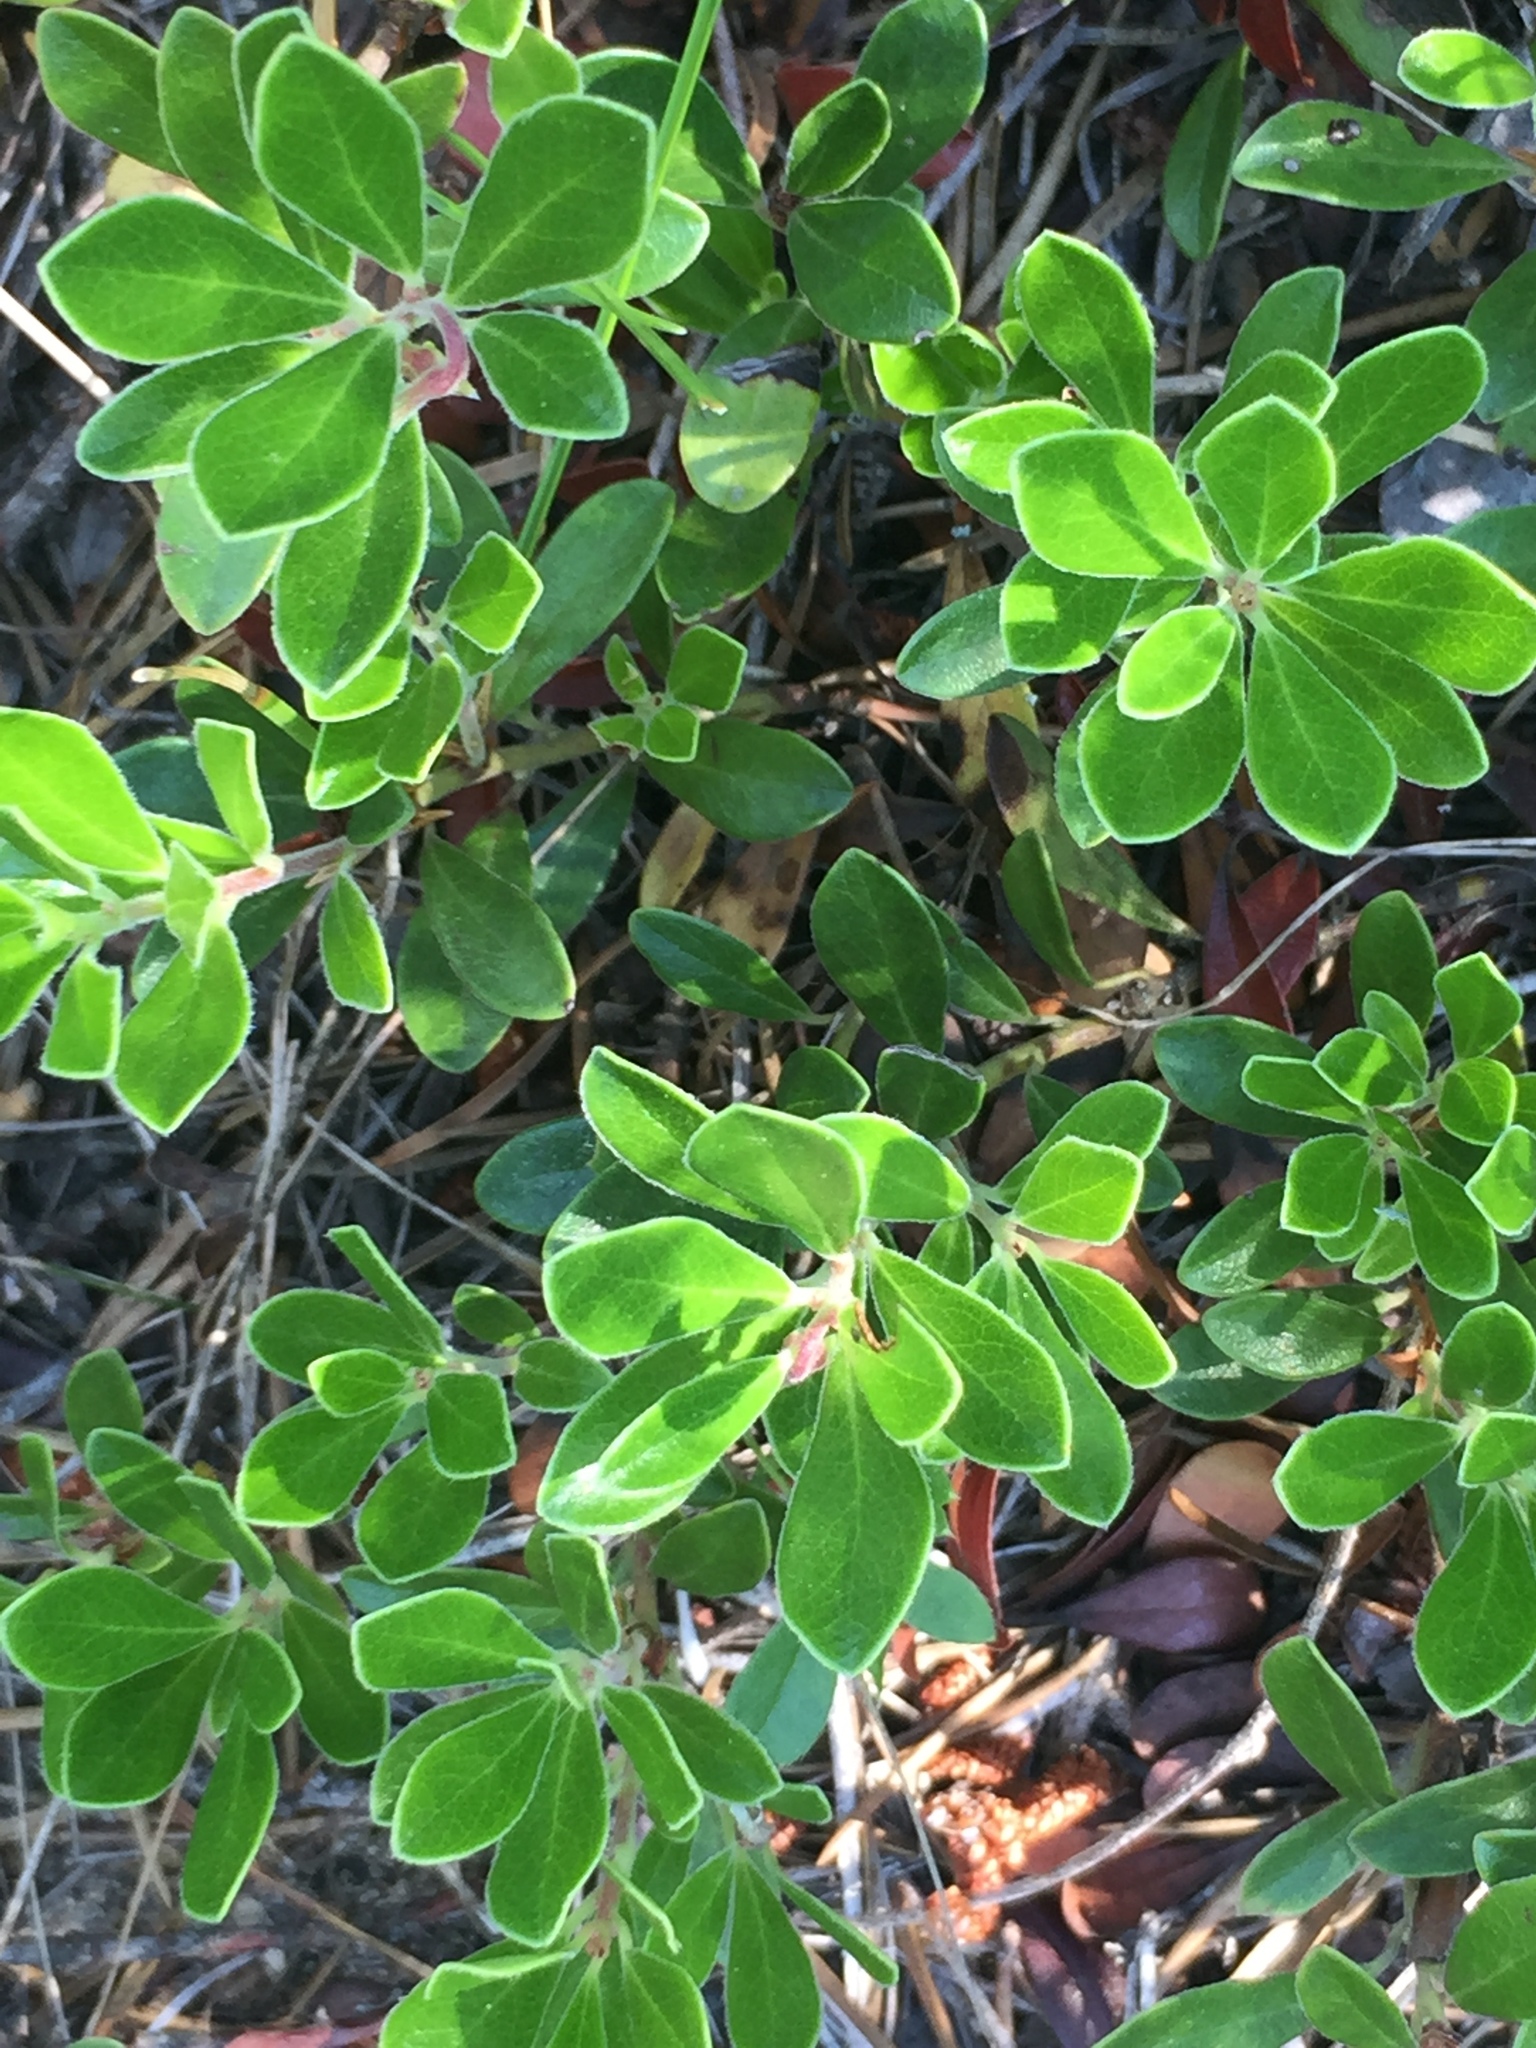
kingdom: Plantae
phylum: Tracheophyta
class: Magnoliopsida
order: Ericales
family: Ericaceae
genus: Arctostaphylos
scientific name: Arctostaphylos uva-ursi
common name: Bearberry
